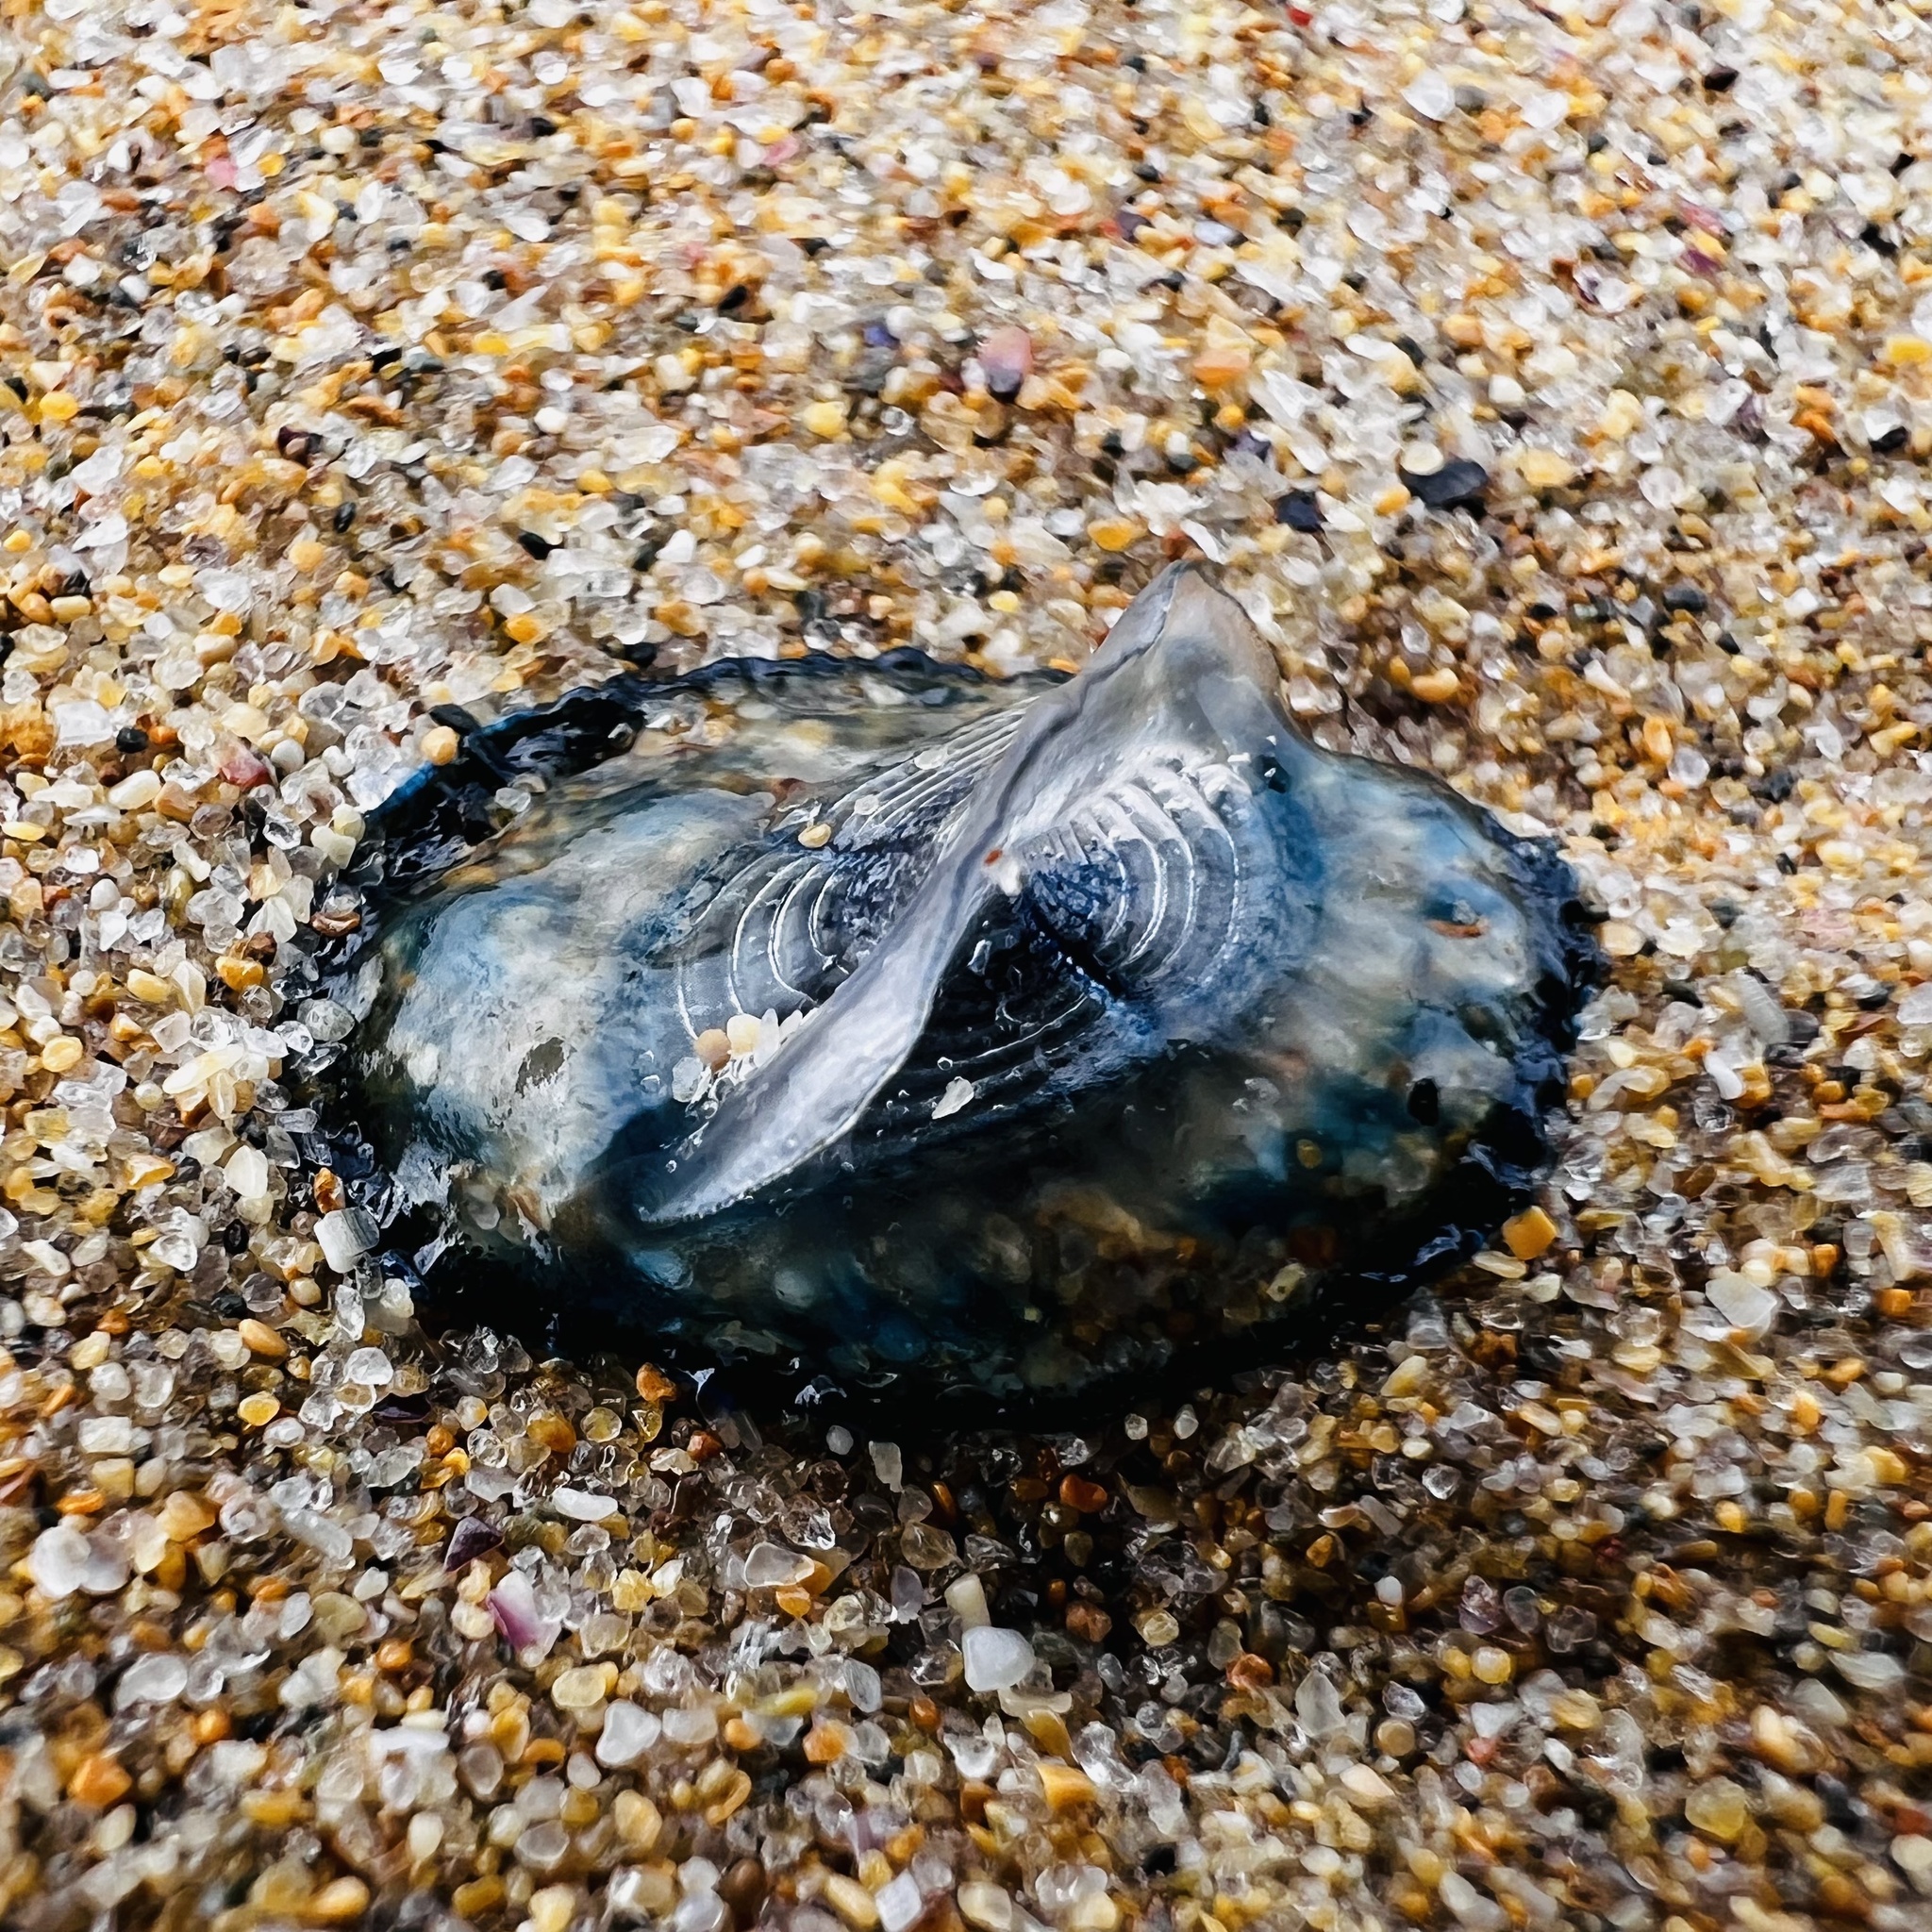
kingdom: Animalia
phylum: Cnidaria
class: Hydrozoa
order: Anthoathecata
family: Porpitidae
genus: Velella
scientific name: Velella velella
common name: By-the-wind-sailor
